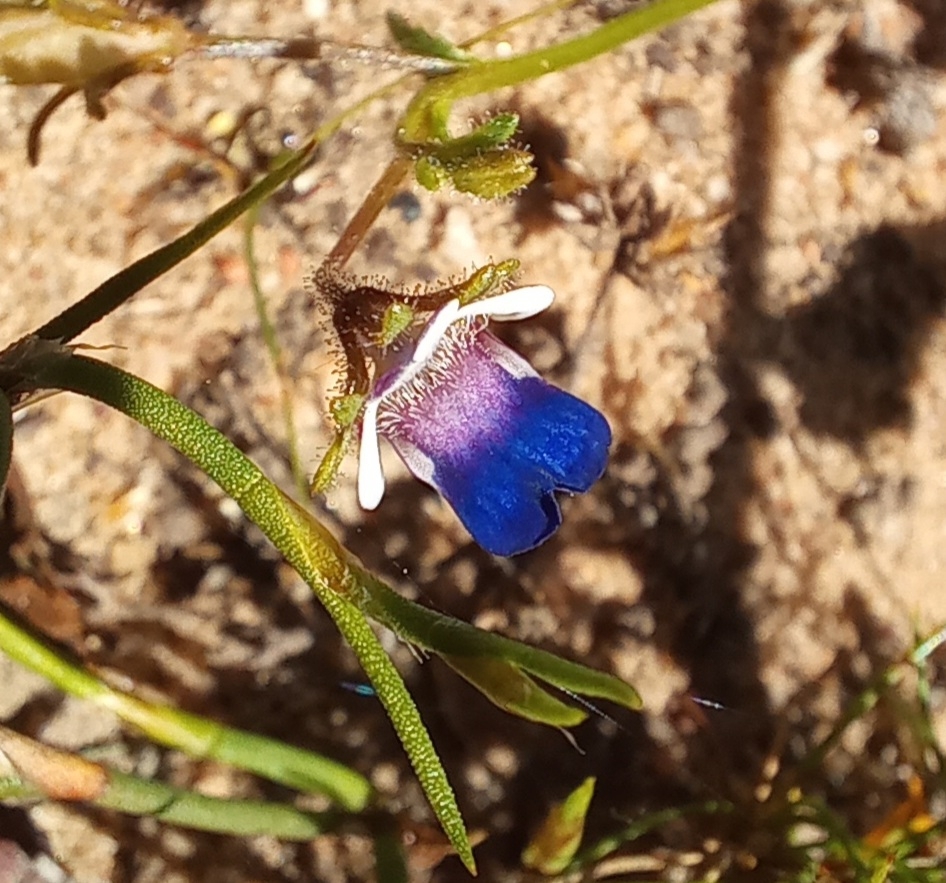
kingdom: Plantae
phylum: Tracheophyta
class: Magnoliopsida
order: Lamiales
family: Scrophulariaceae
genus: Nemesia
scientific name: Nemesia barbata
